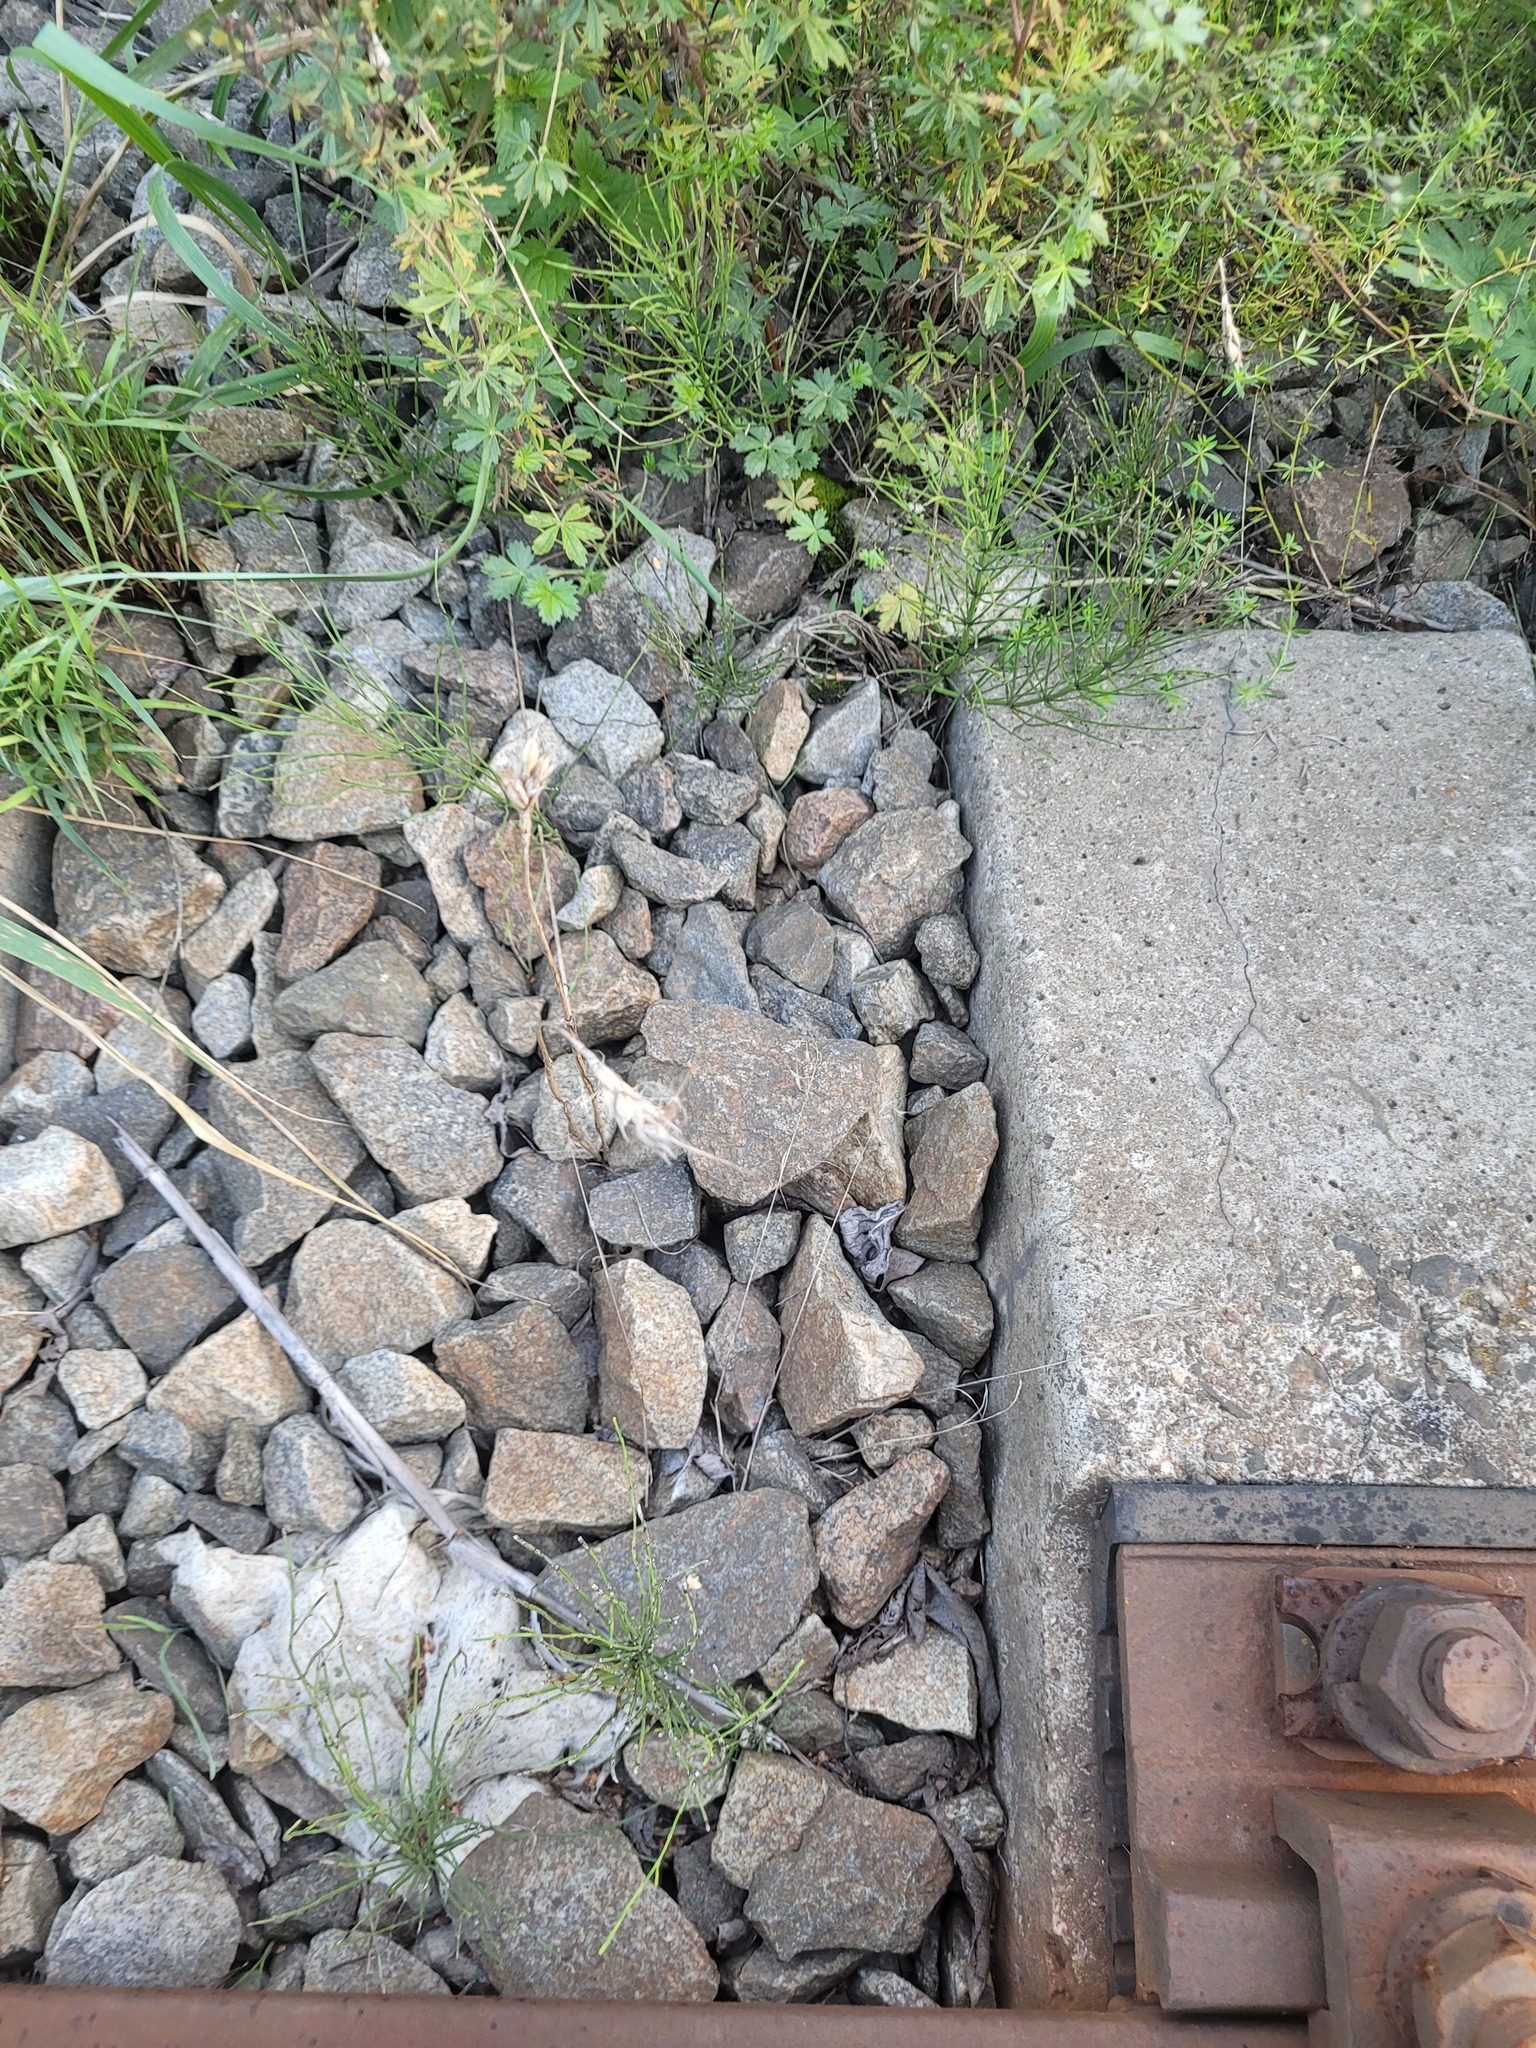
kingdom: Plantae
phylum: Tracheophyta
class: Liliopsida
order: Poales
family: Poaceae
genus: Triticum
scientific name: Triticum aestivum
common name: Common wheat
